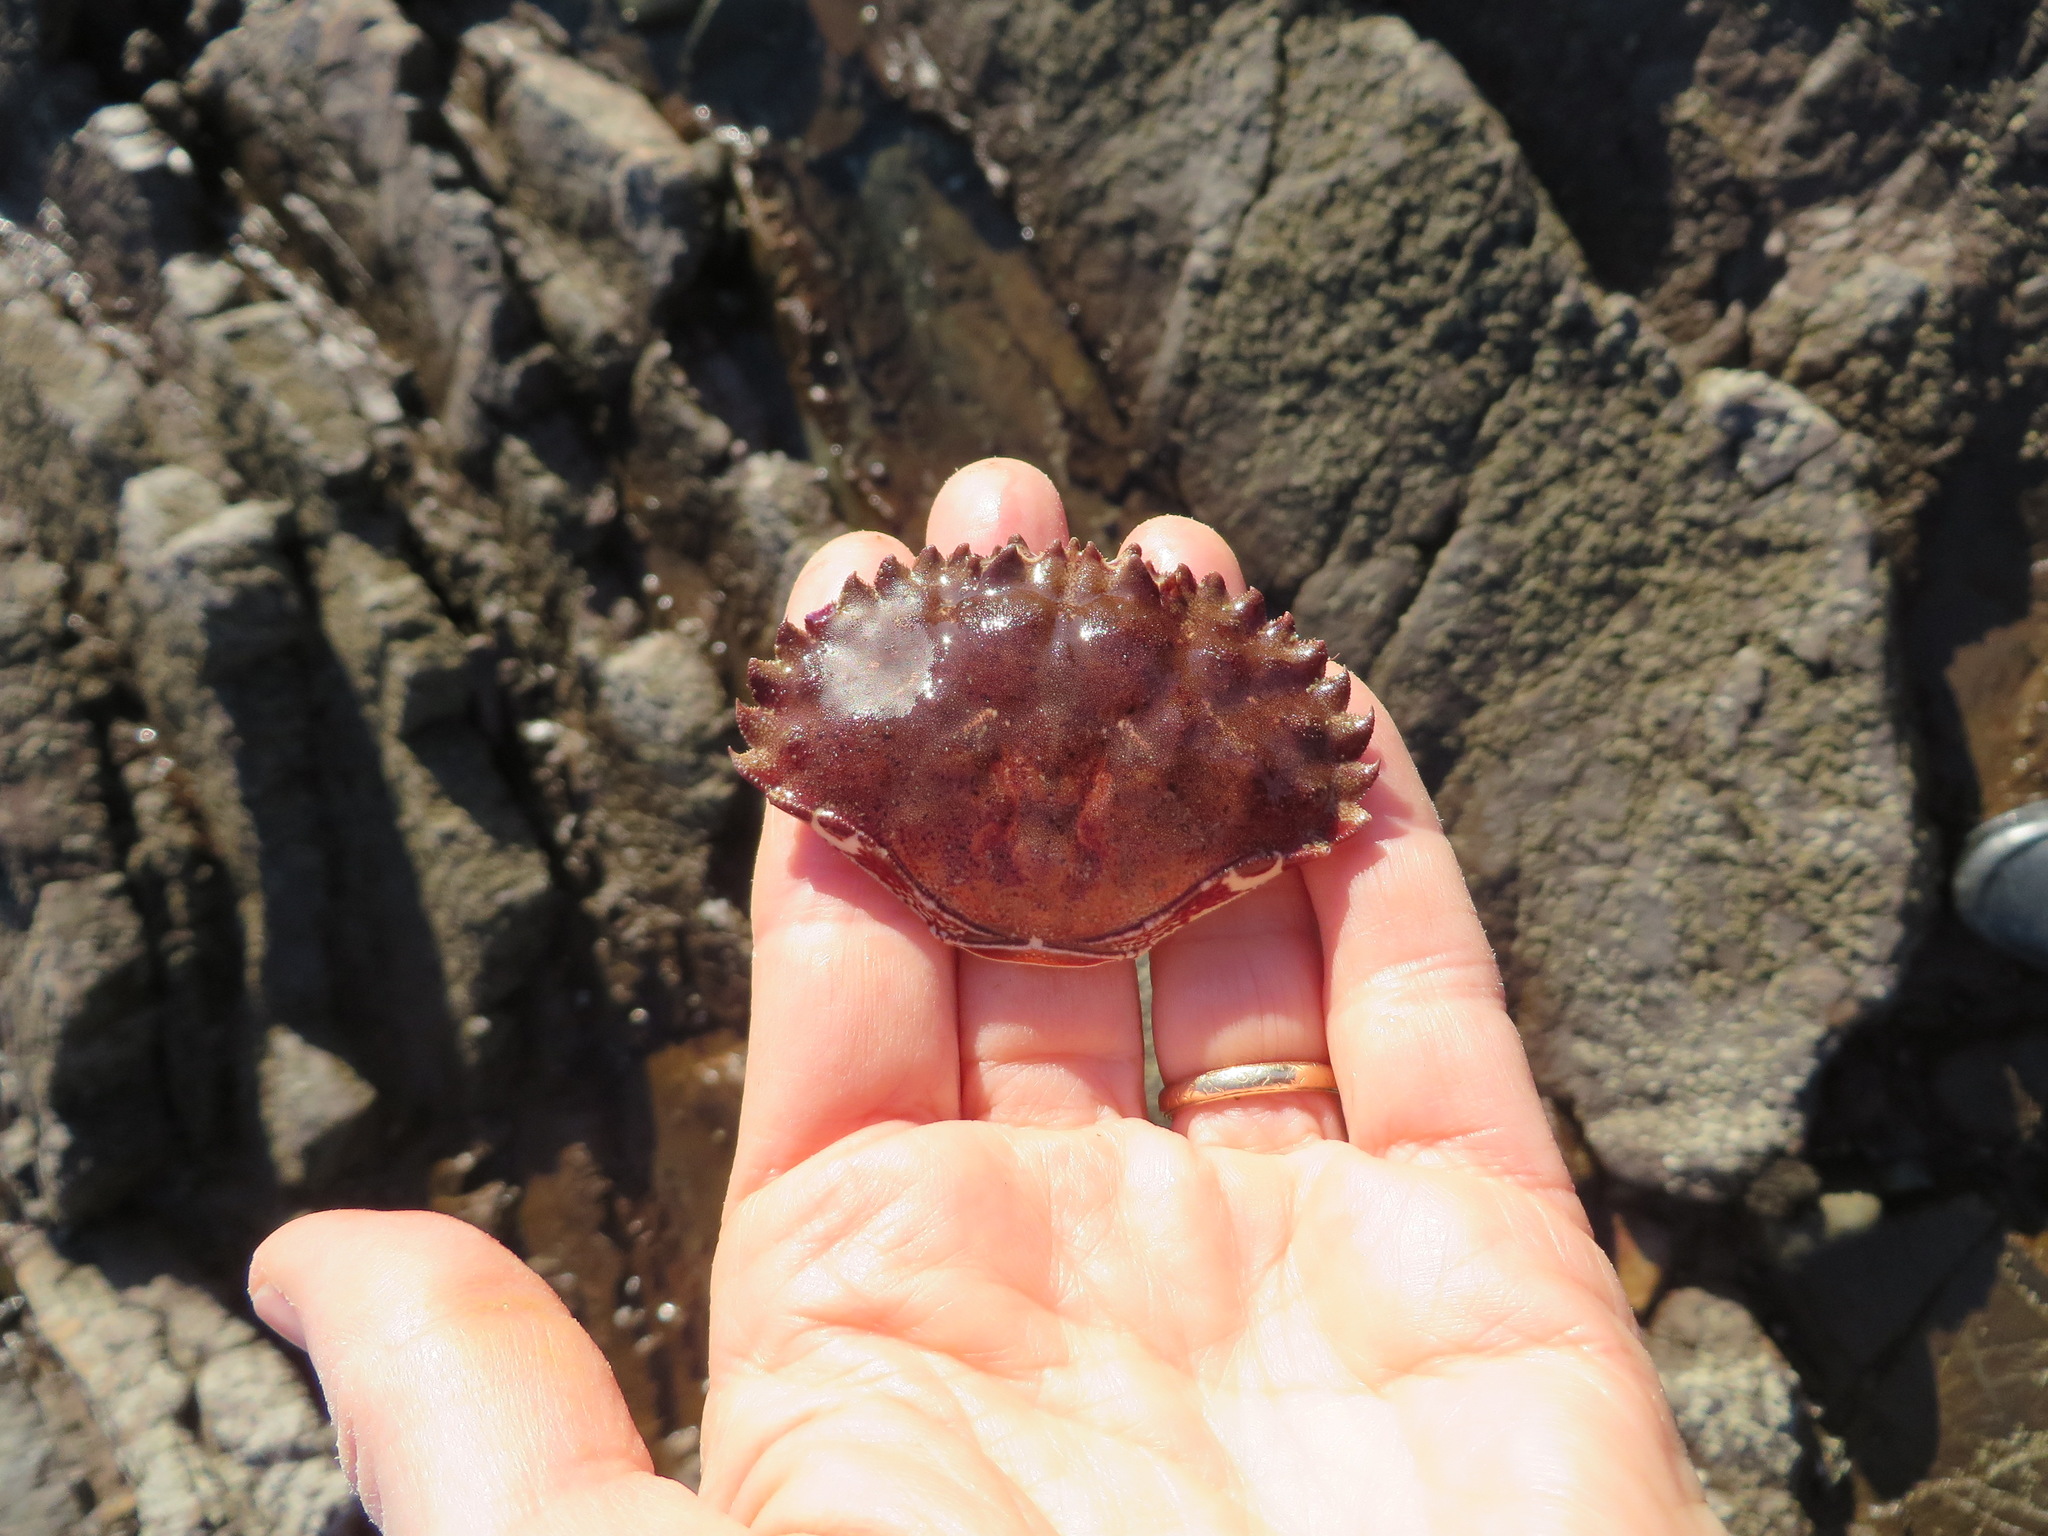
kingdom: Animalia
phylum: Arthropoda
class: Malacostraca
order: Decapoda
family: Cancridae
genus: Romaleon
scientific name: Romaleon antennarium
